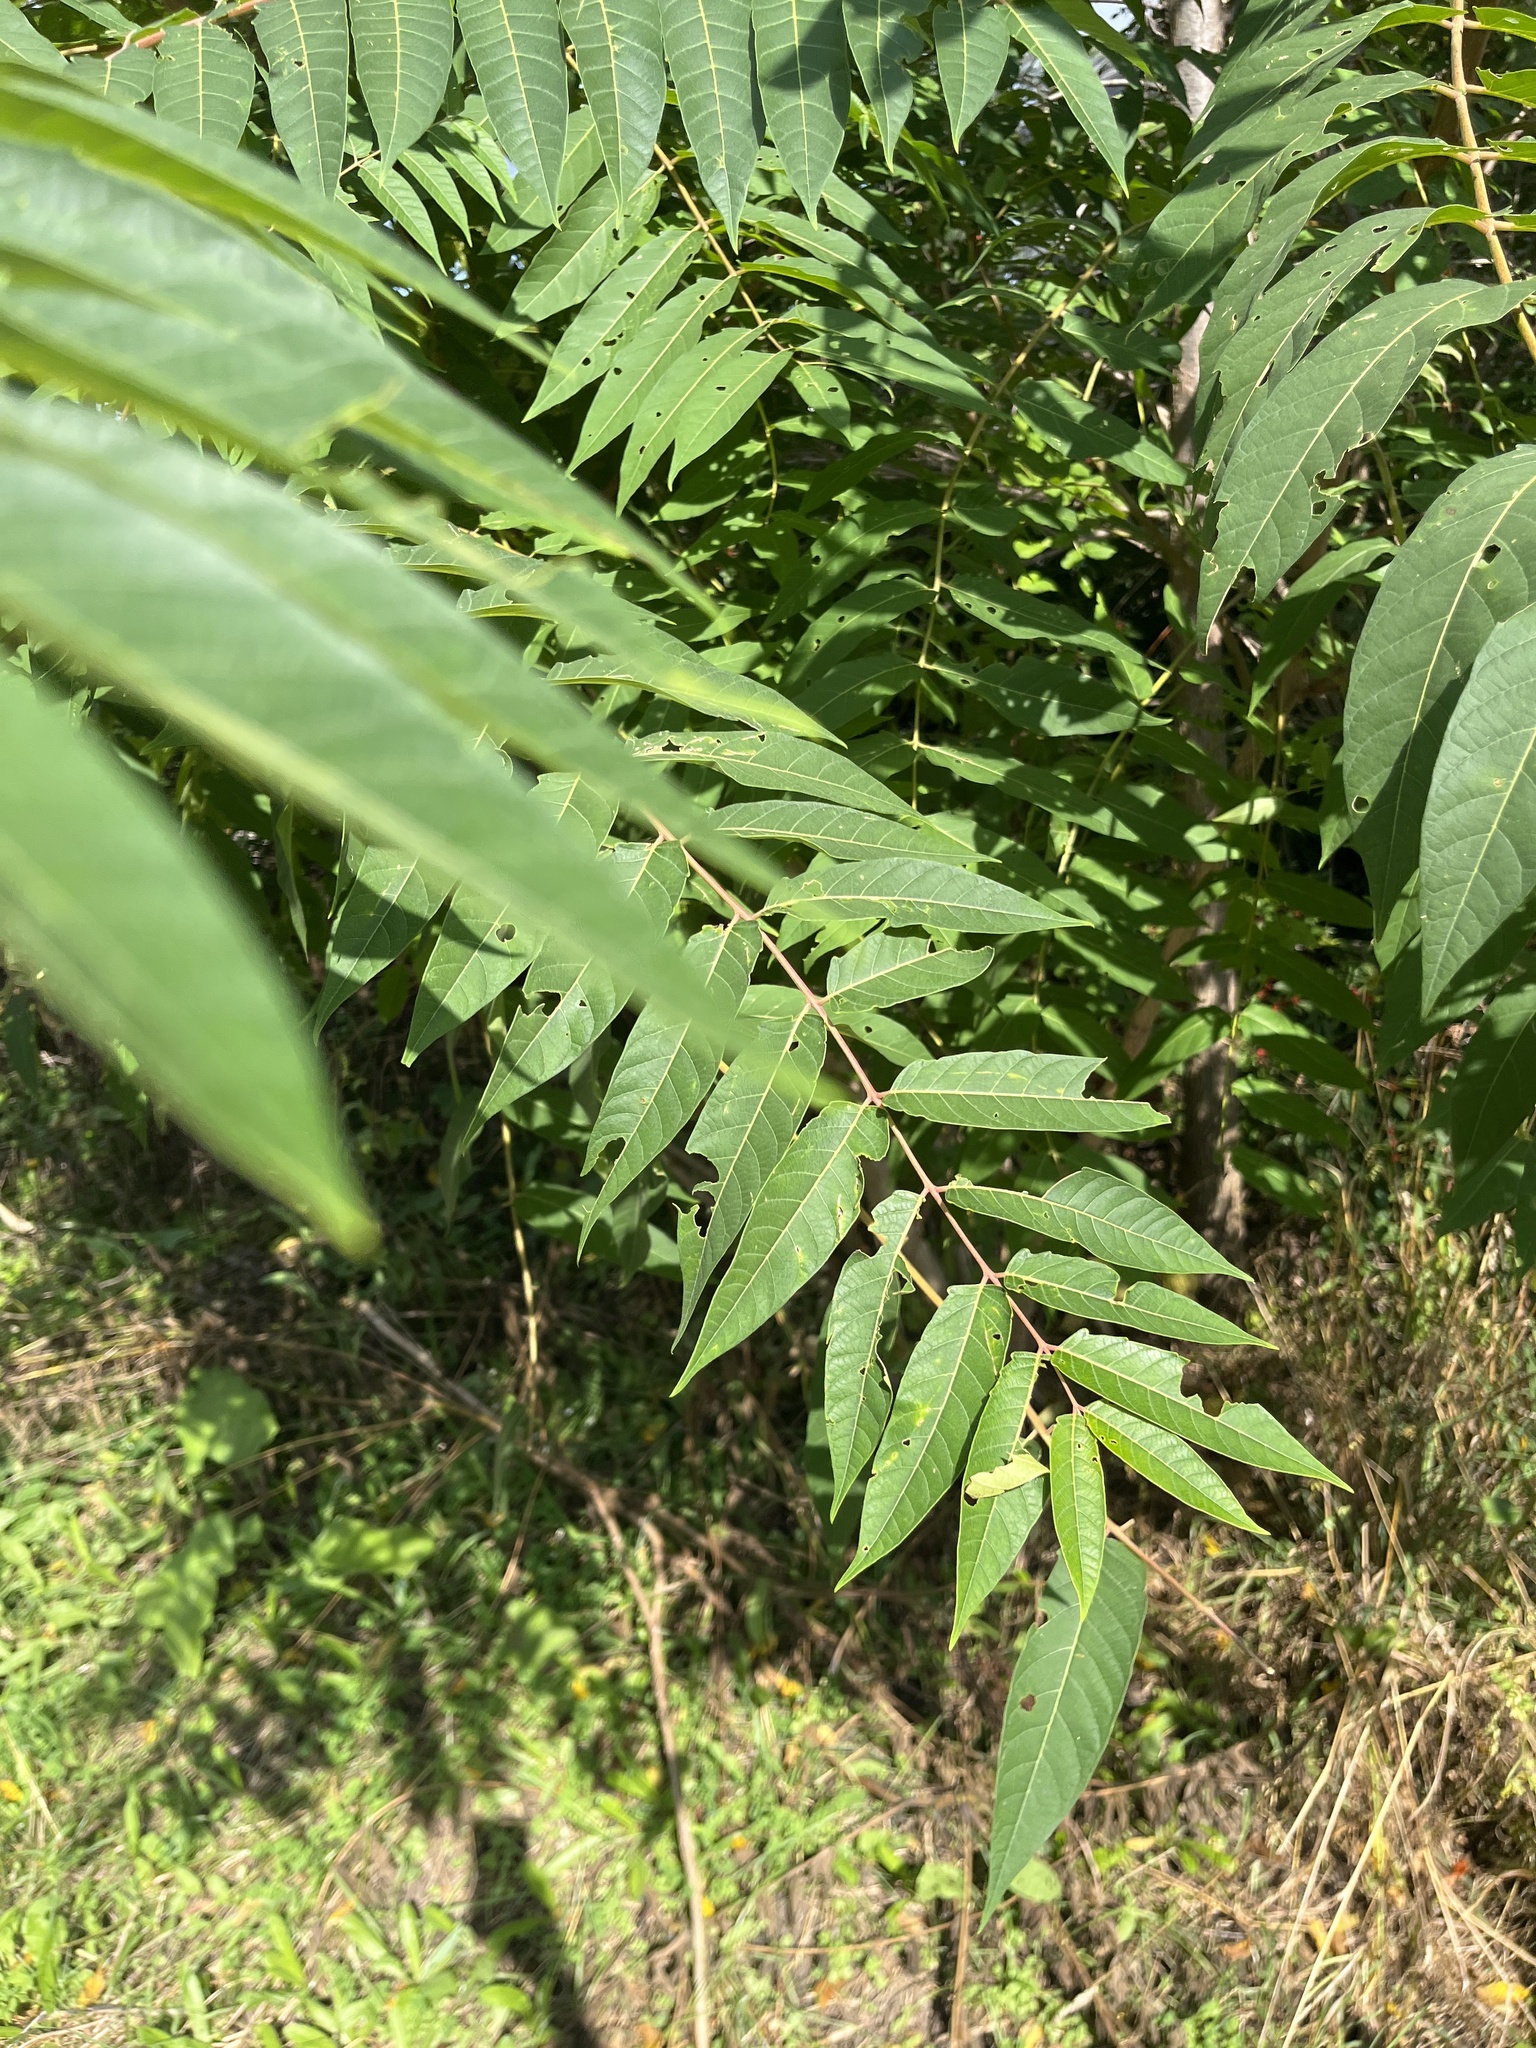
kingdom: Plantae
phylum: Tracheophyta
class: Magnoliopsida
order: Sapindales
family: Simaroubaceae
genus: Ailanthus
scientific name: Ailanthus altissima
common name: Tree-of-heaven
